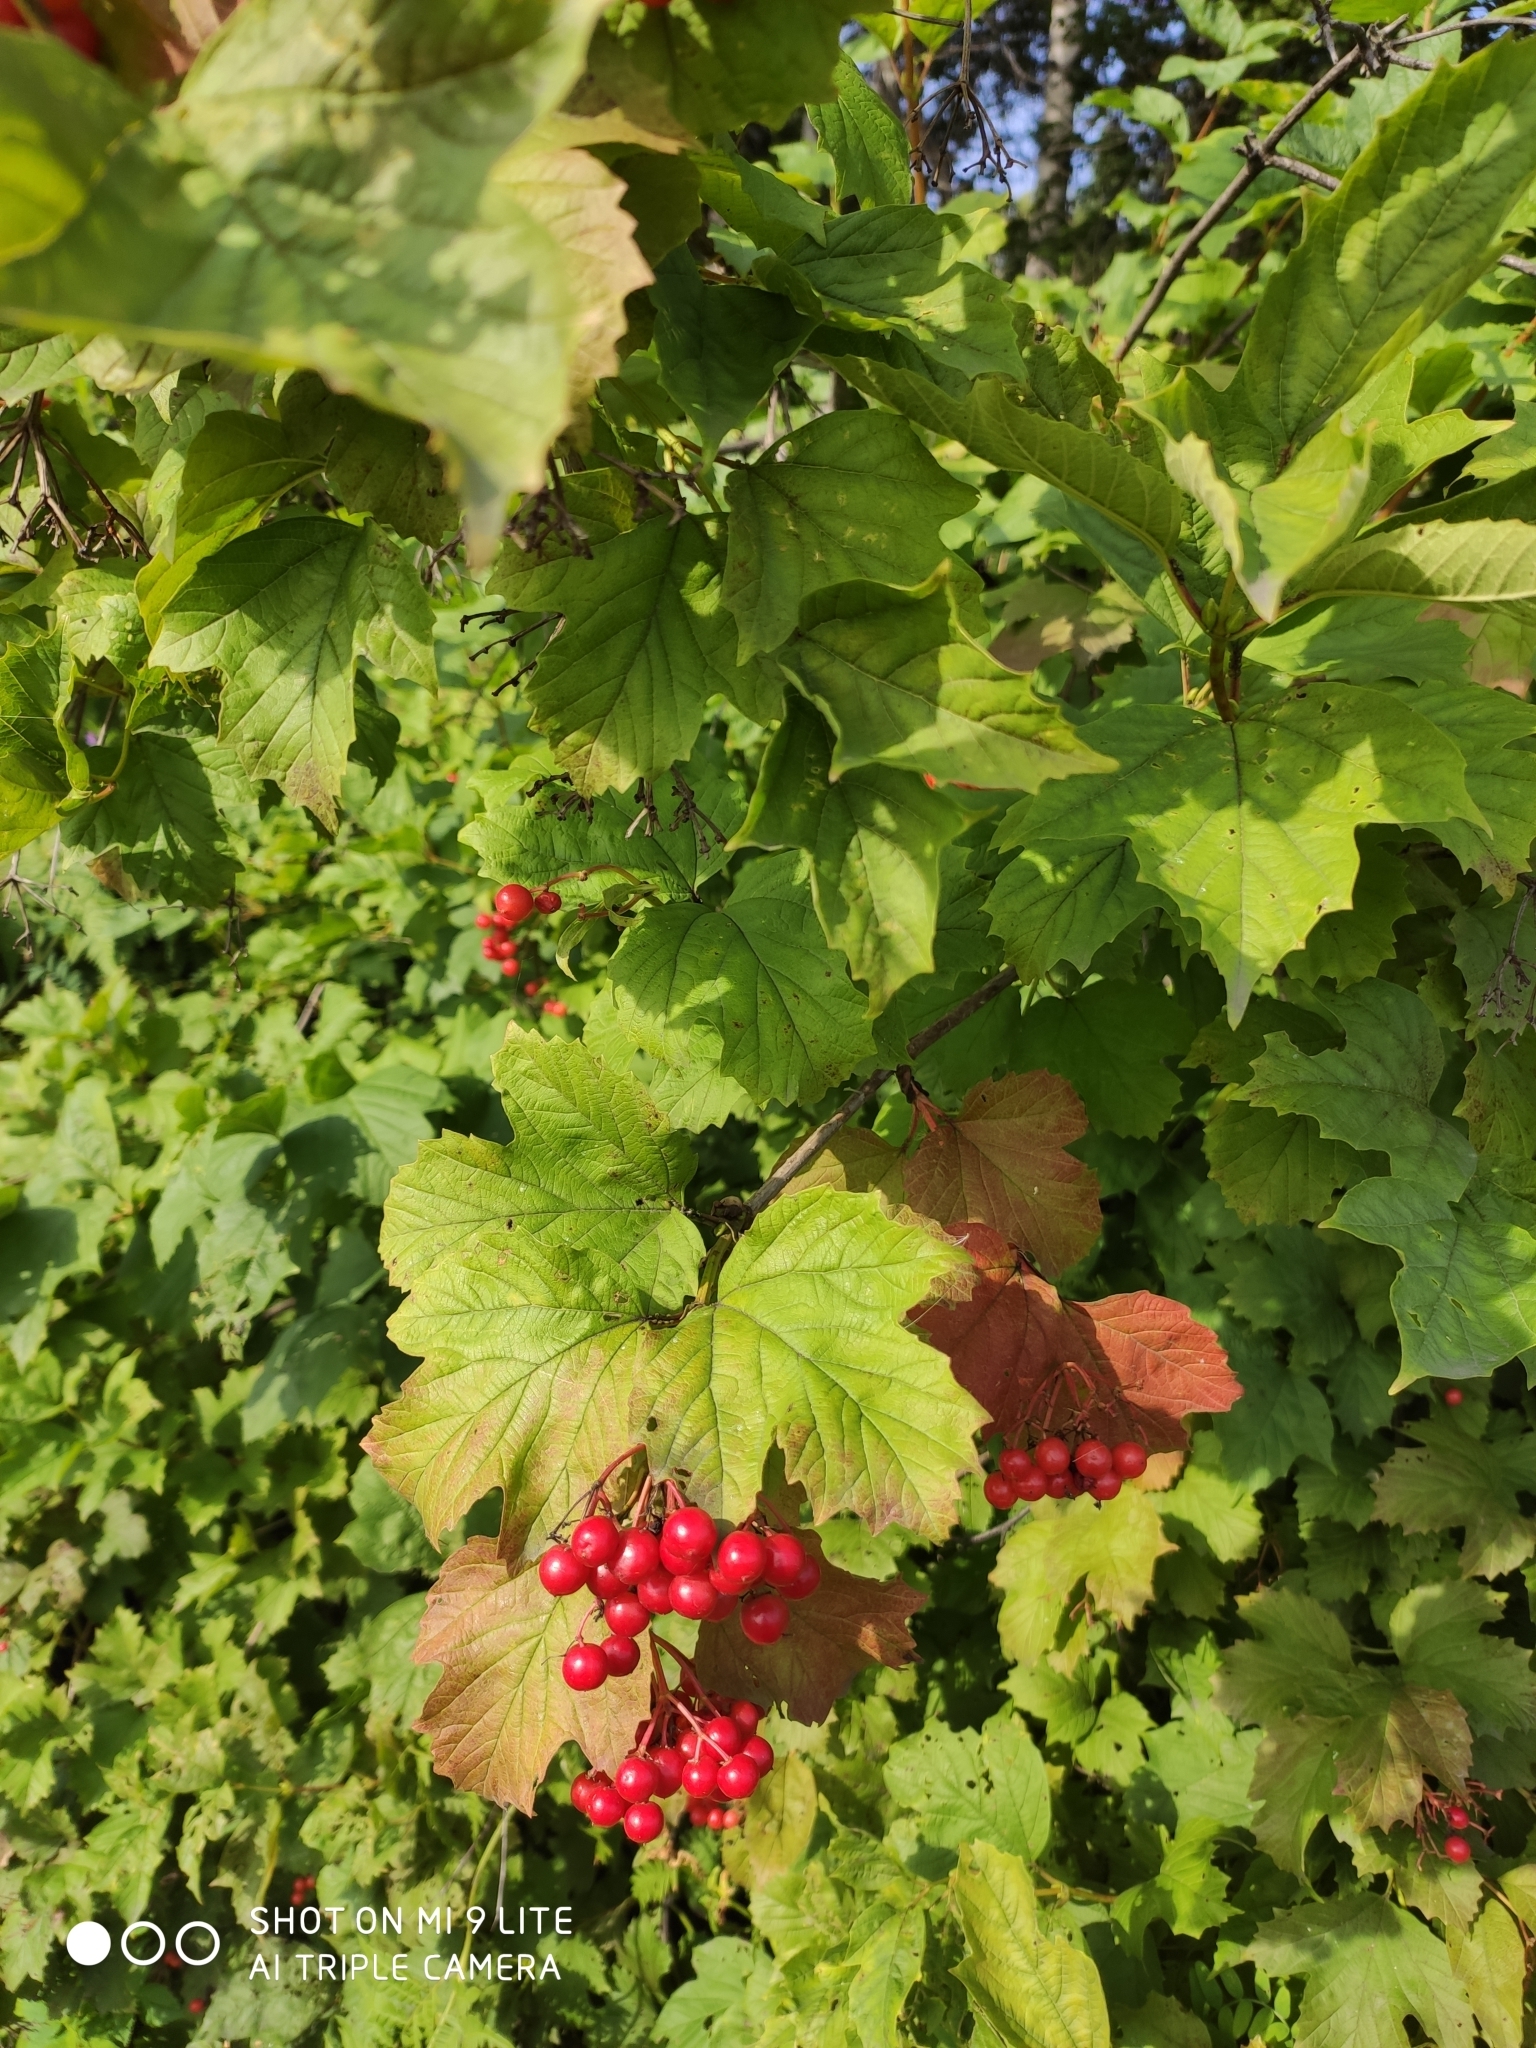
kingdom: Plantae
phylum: Tracheophyta
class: Magnoliopsida
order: Dipsacales
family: Viburnaceae
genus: Viburnum
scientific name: Viburnum opulus
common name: Guelder-rose
